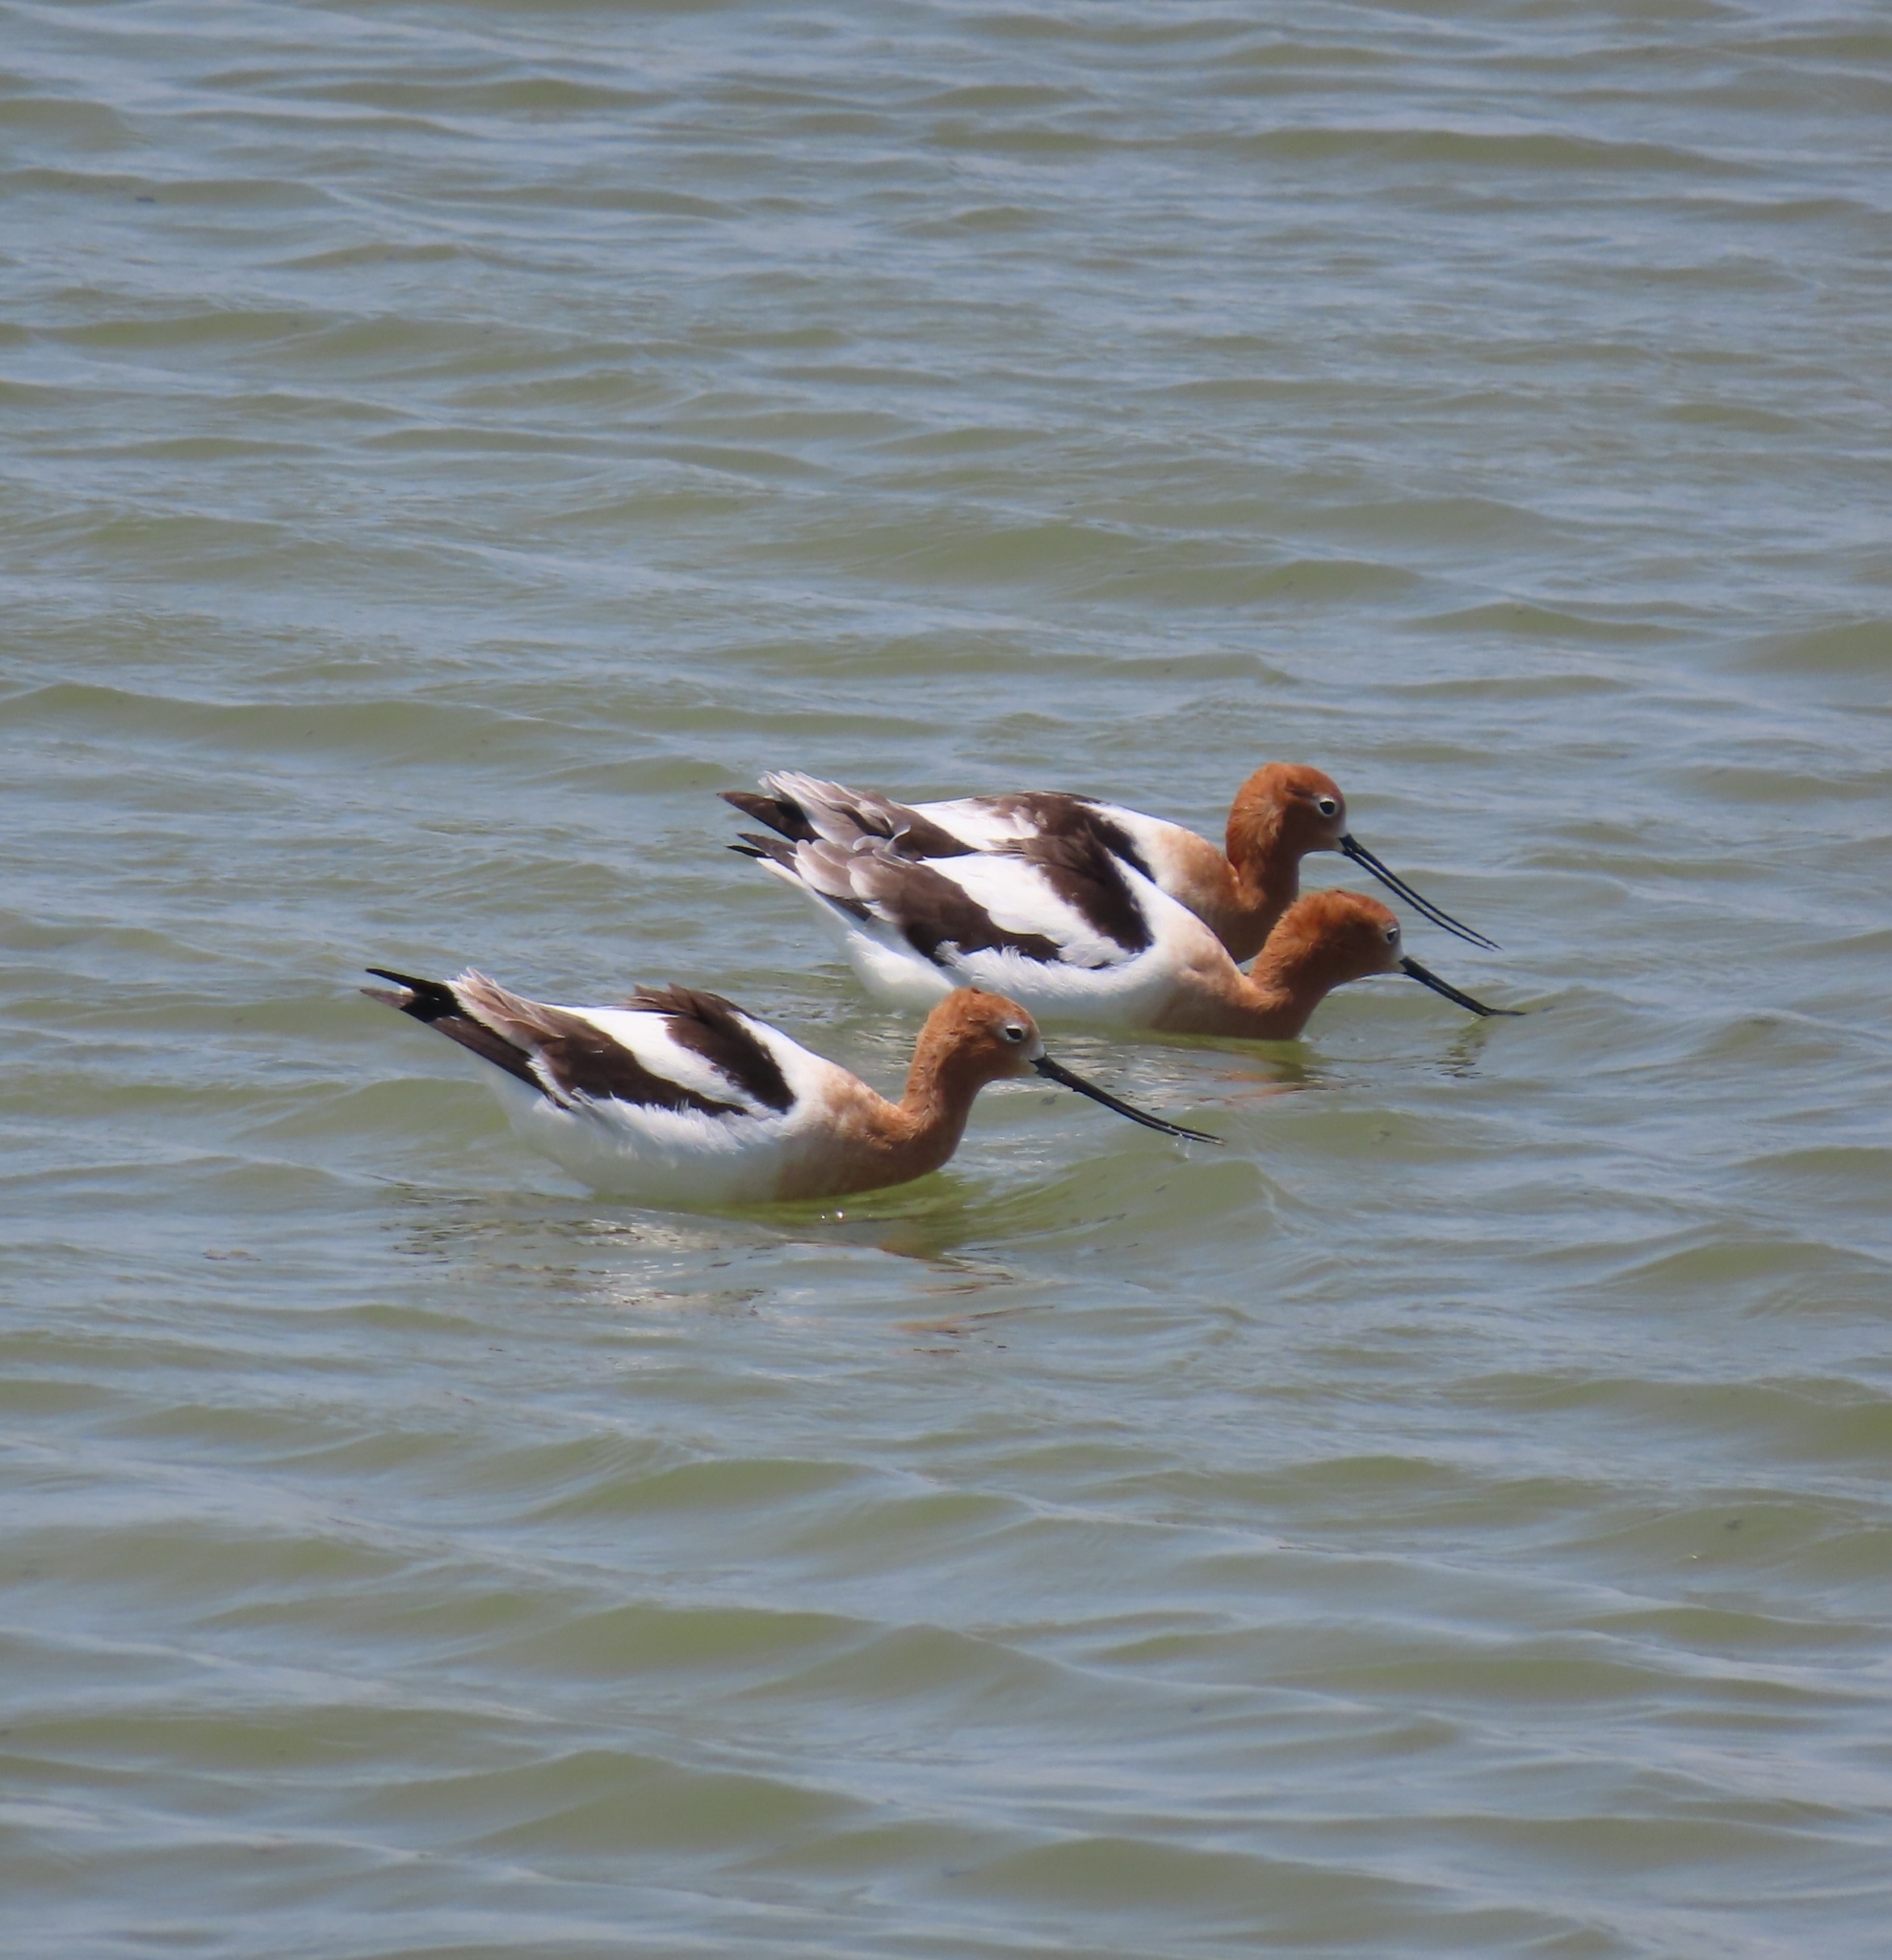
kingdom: Animalia
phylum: Chordata
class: Aves
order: Charadriiformes
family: Recurvirostridae
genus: Recurvirostra
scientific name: Recurvirostra americana
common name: American avocet
